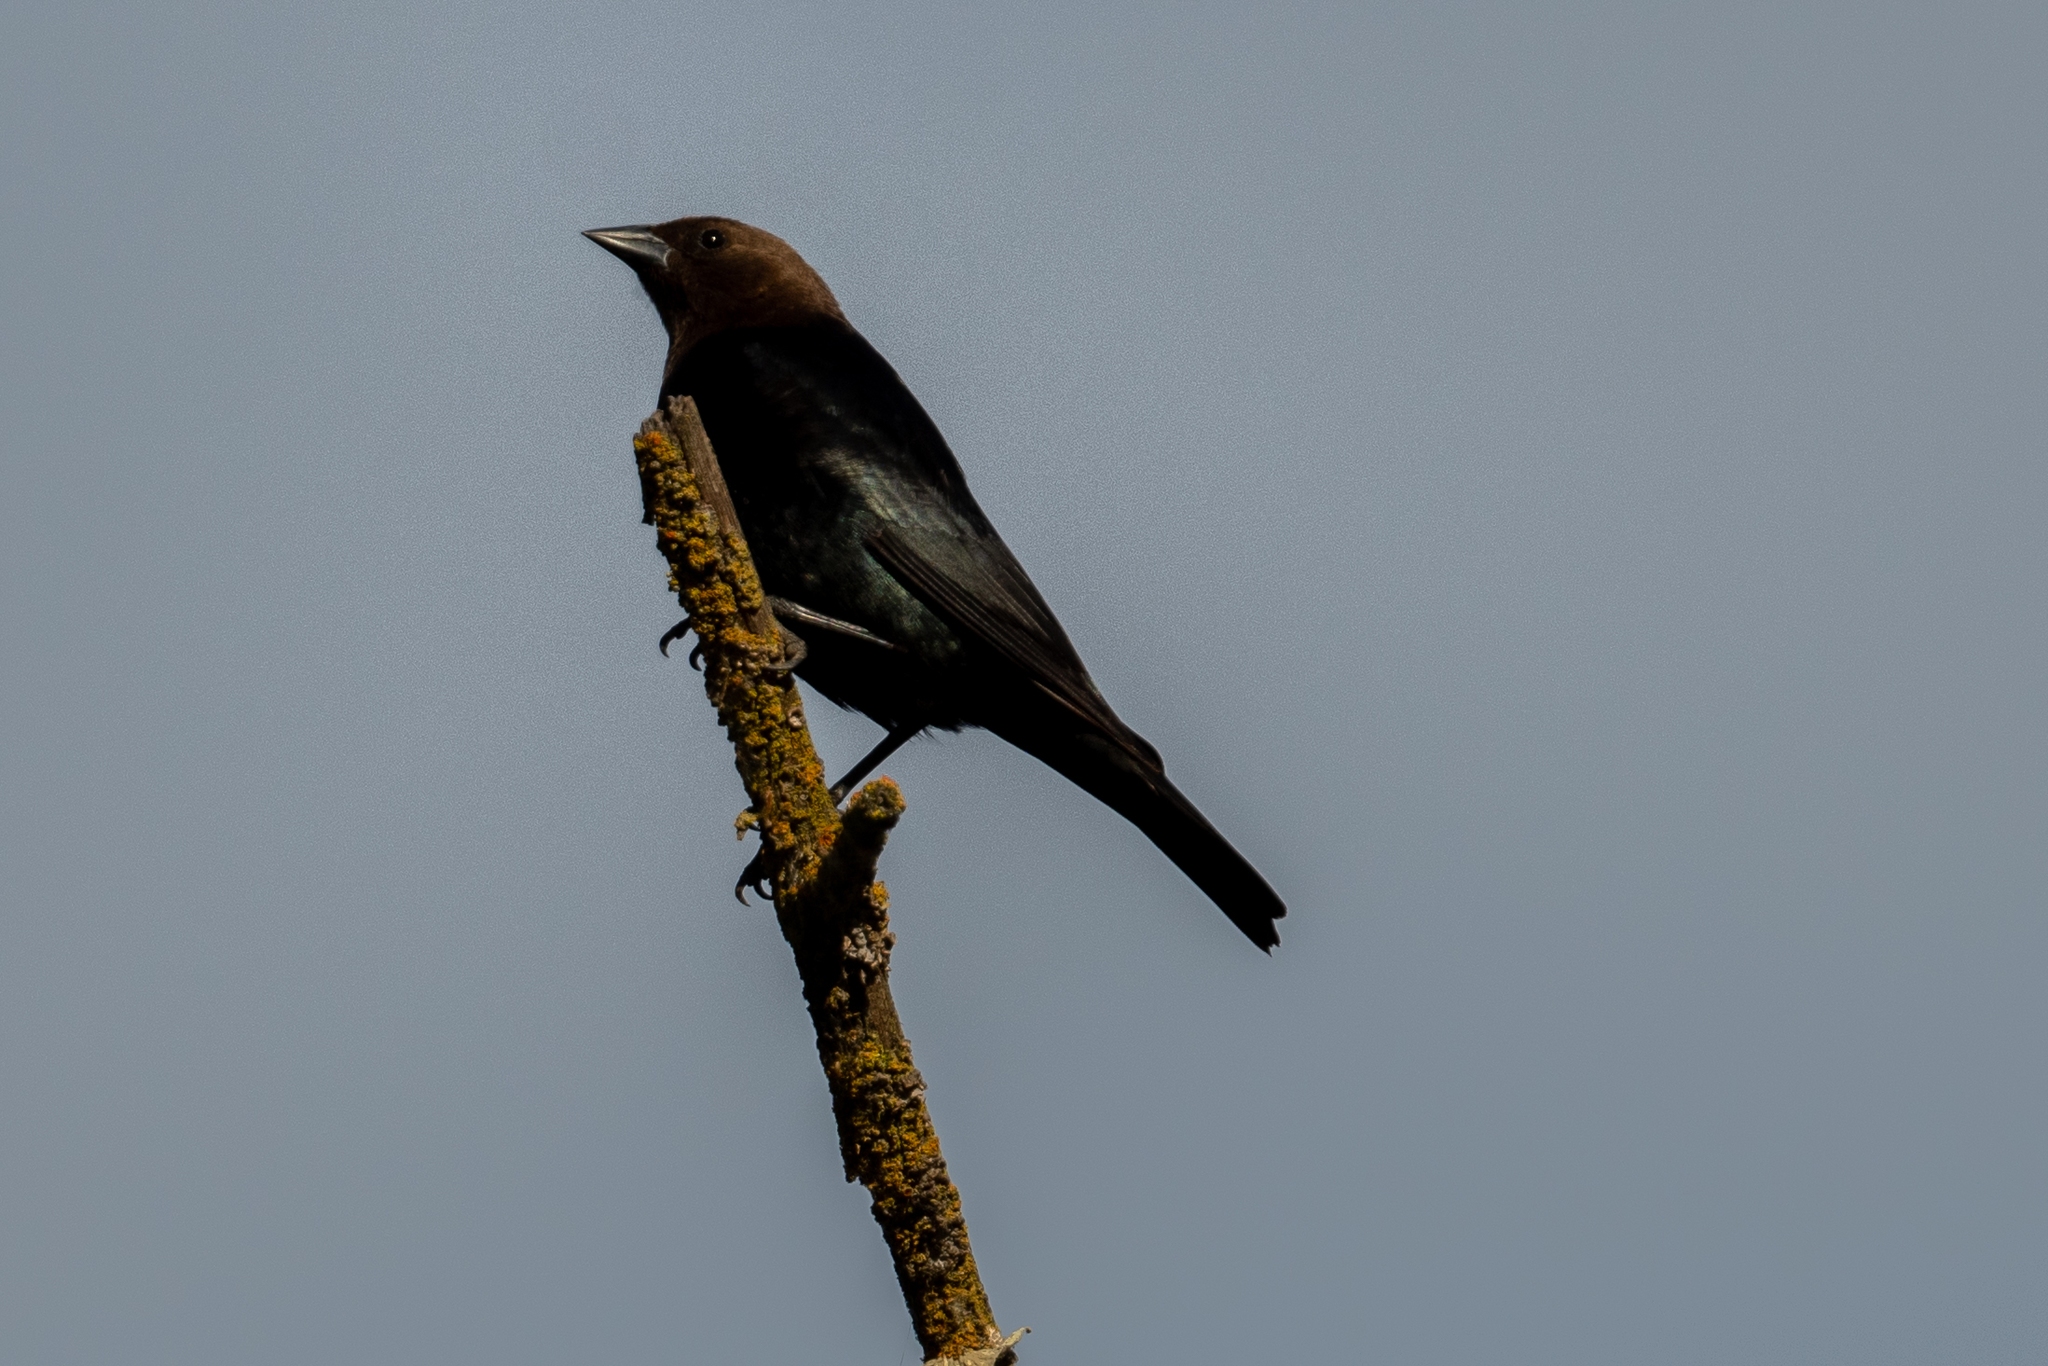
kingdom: Animalia
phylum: Chordata
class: Aves
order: Passeriformes
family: Icteridae
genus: Molothrus
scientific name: Molothrus ater
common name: Brown-headed cowbird
